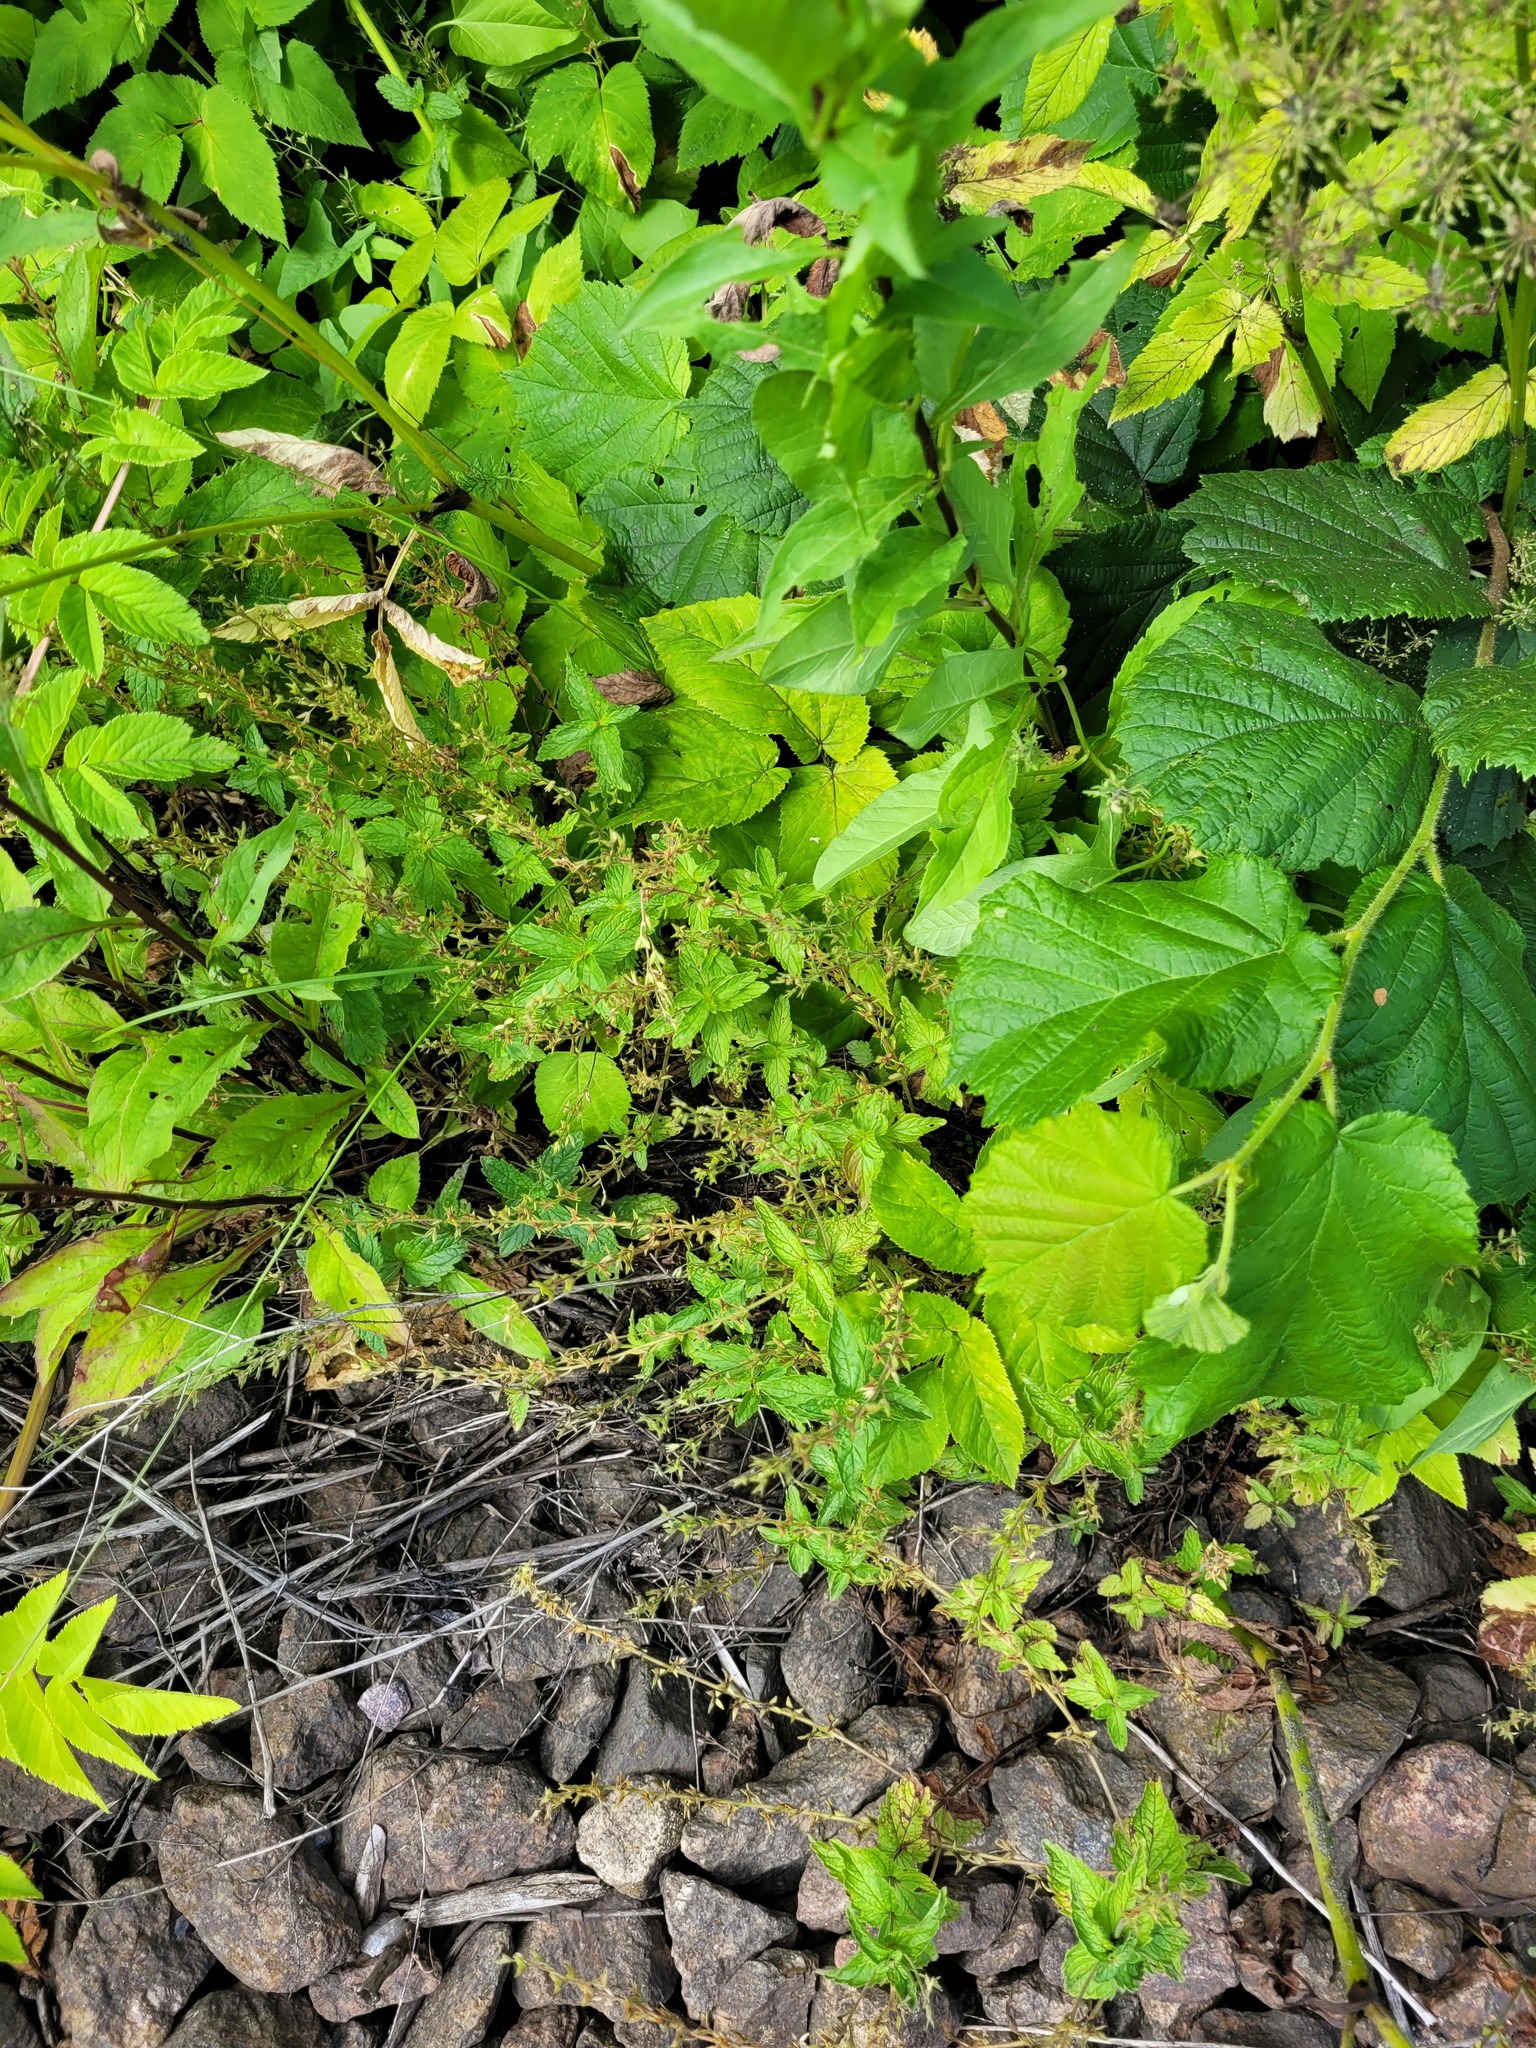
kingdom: Plantae
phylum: Tracheophyta
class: Magnoliopsida
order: Lamiales
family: Plantaginaceae
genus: Veronica
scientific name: Veronica chamaedrys
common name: Germander speedwell
